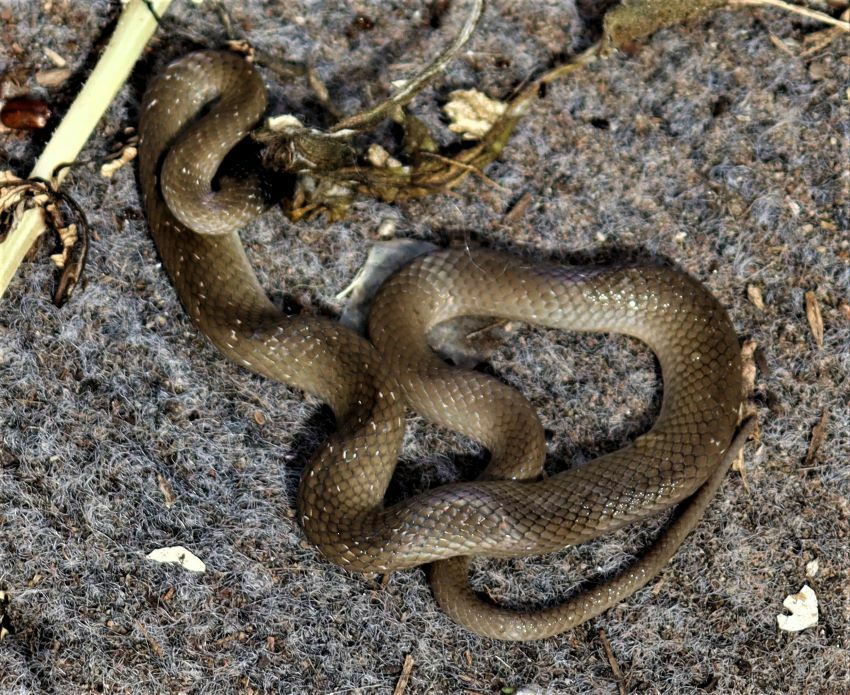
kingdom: Animalia
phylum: Chordata
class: Squamata
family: Colubridae
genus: Crotaphopeltis
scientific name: Crotaphopeltis hotamboeia
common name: Red-lipped snake
